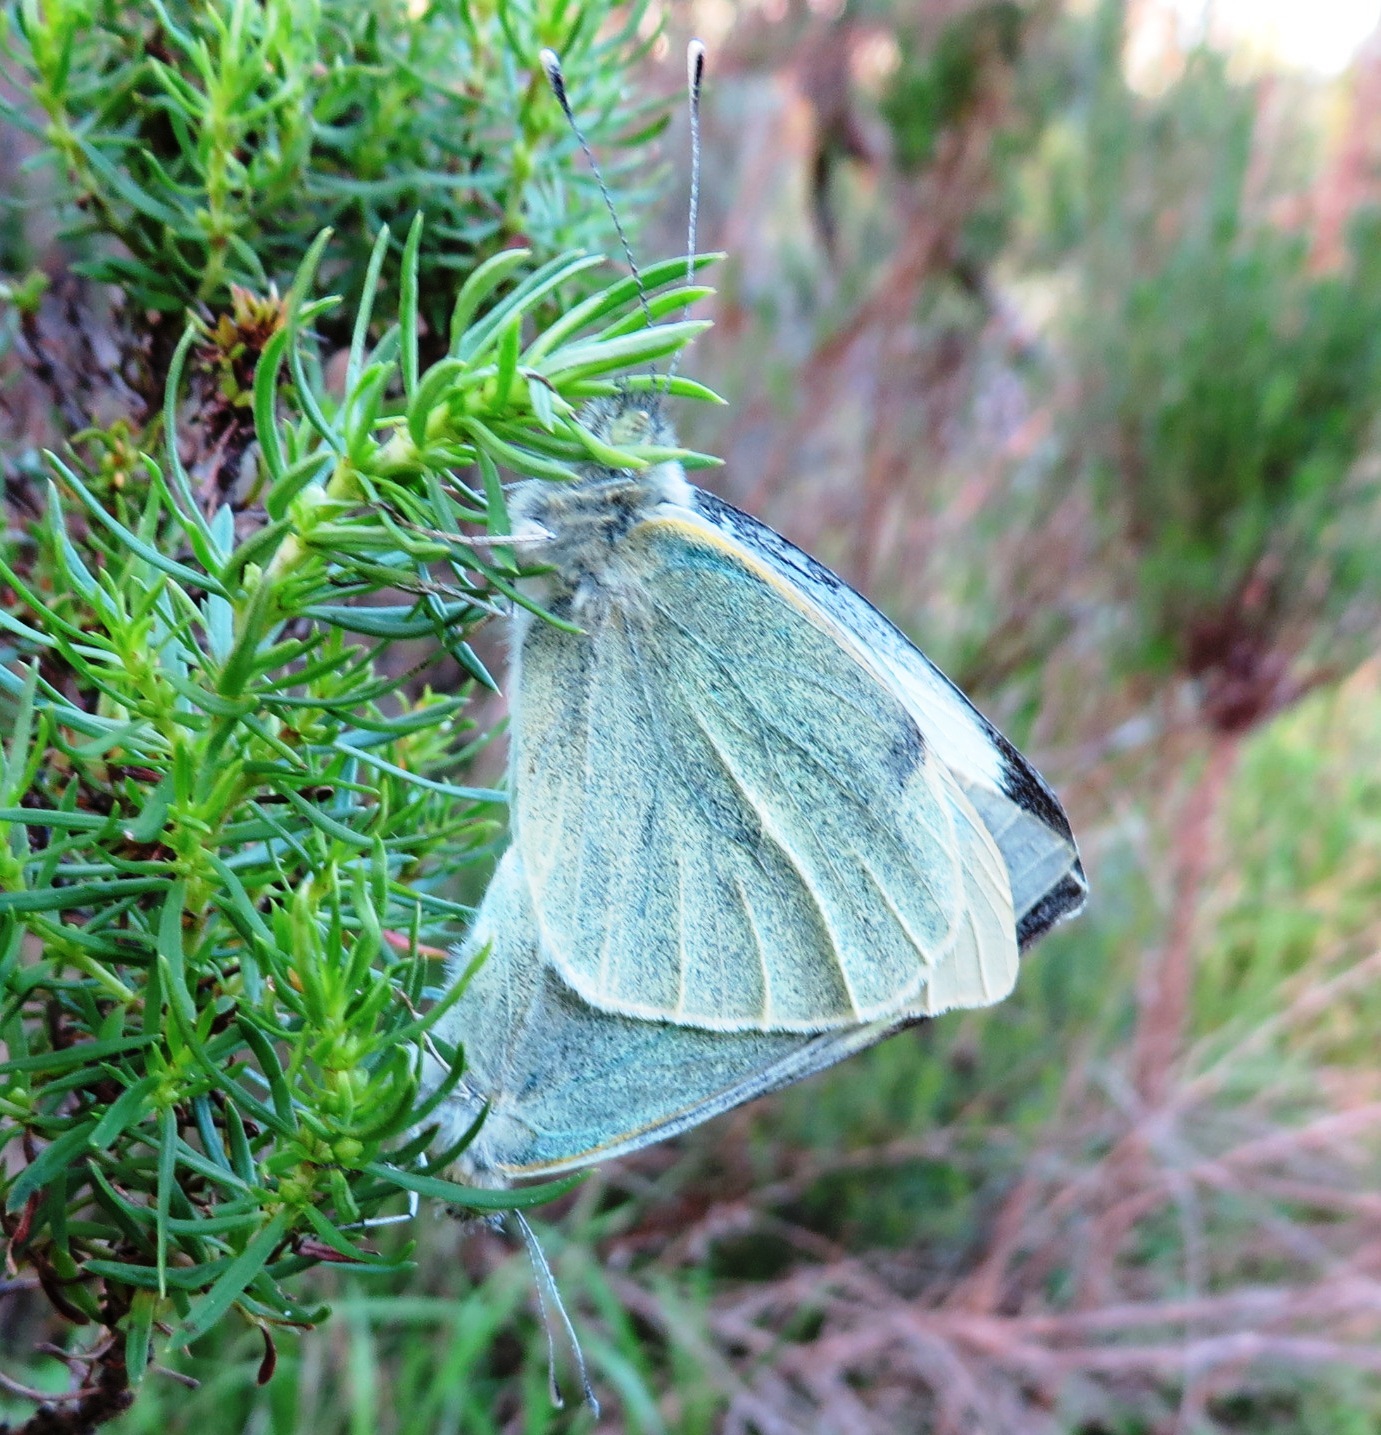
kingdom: Animalia
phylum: Arthropoda
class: Insecta
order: Lepidoptera
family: Pieridae
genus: Pieris
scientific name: Pieris brassicae
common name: Large white
